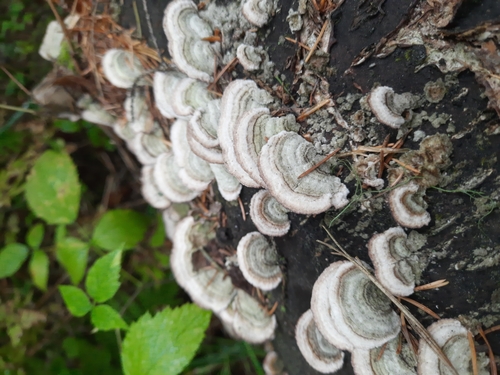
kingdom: Fungi
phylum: Basidiomycota
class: Agaricomycetes
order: Hymenochaetales
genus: Trichaptum
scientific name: Trichaptum abietinum
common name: Purplepore bracket
